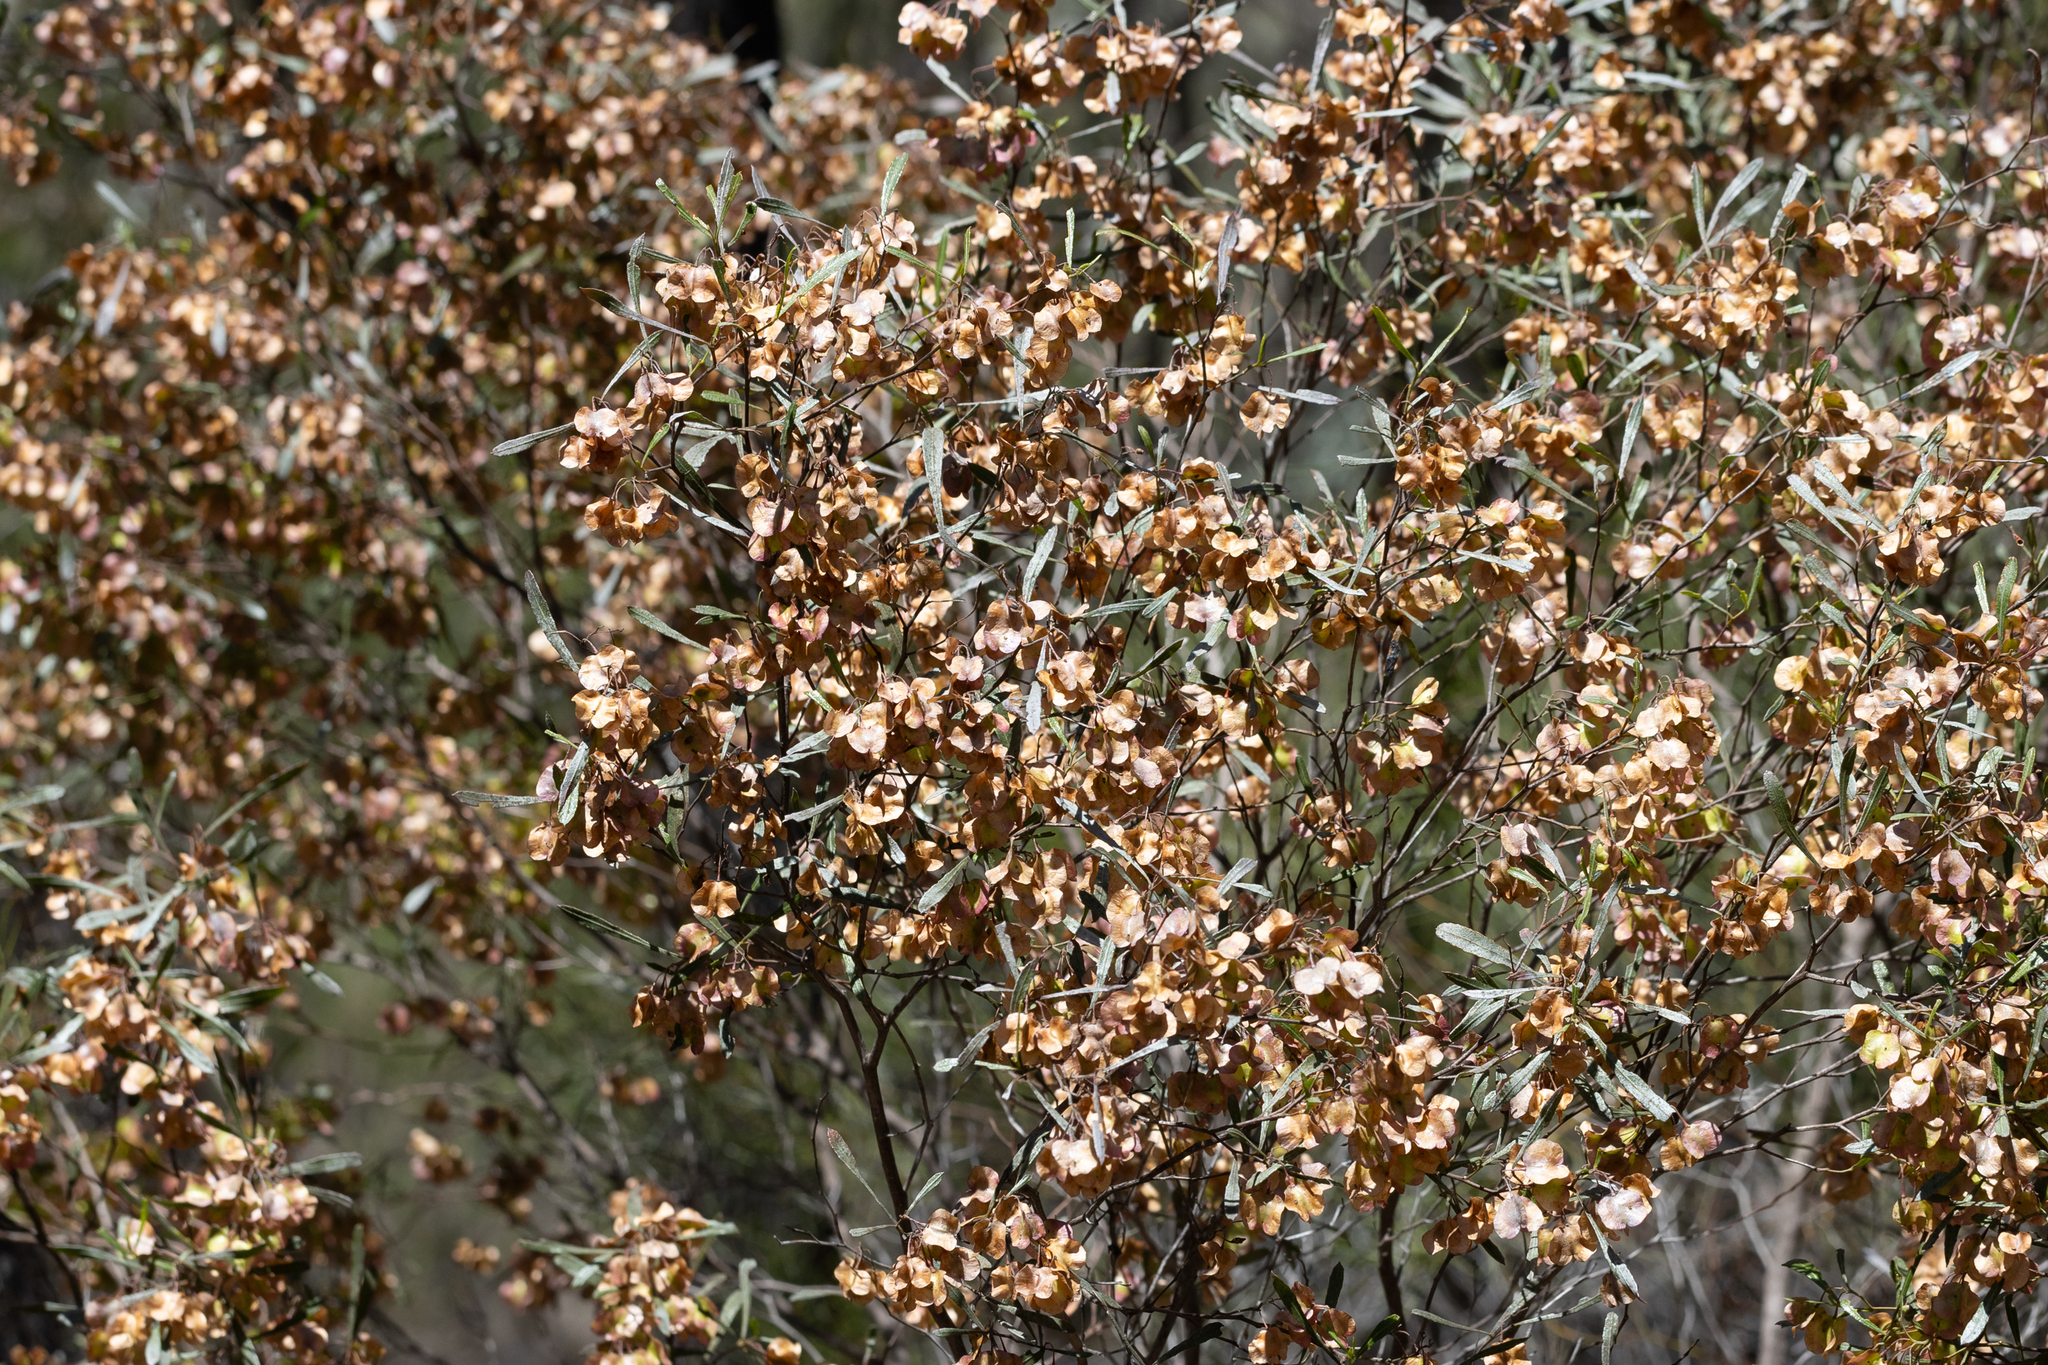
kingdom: Plantae
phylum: Tracheophyta
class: Magnoliopsida
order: Sapindales
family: Sapindaceae
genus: Dodonaea
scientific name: Dodonaea viscosa
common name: Hopbush
